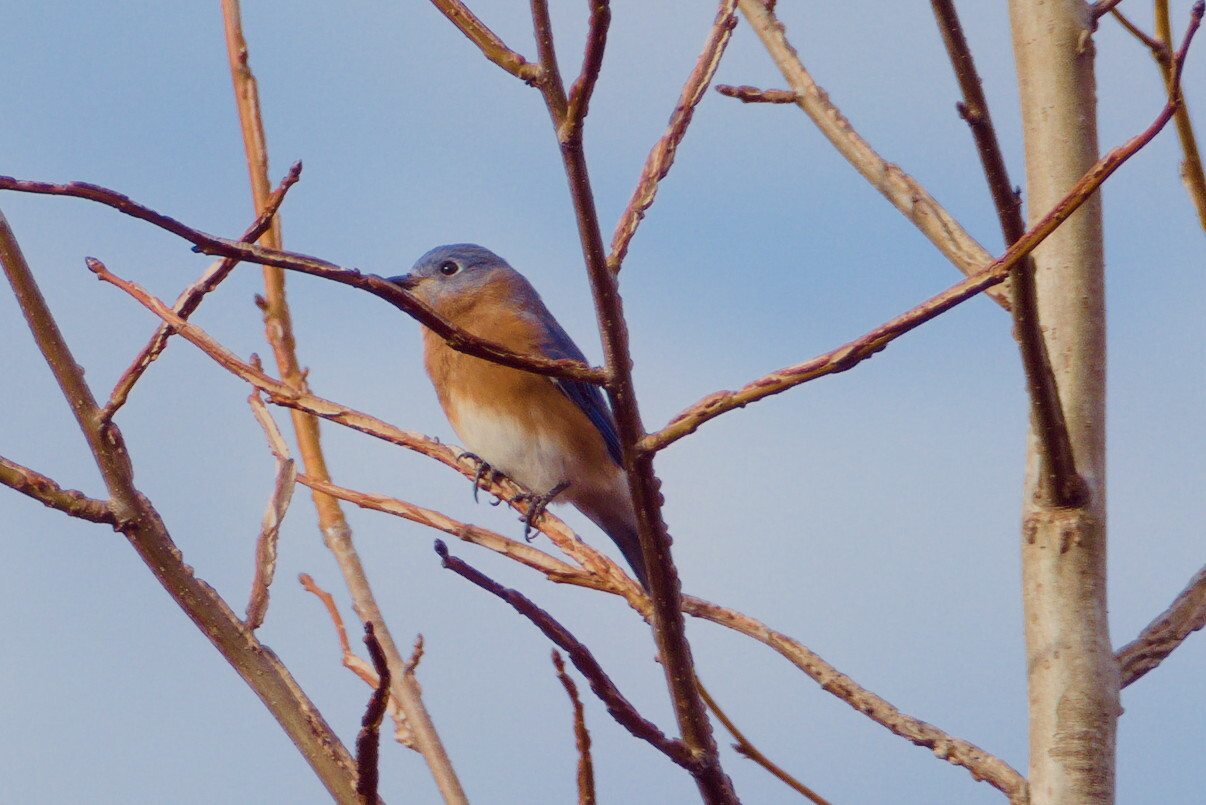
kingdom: Animalia
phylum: Chordata
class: Aves
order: Passeriformes
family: Turdidae
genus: Sialia
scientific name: Sialia sialis
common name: Eastern bluebird
